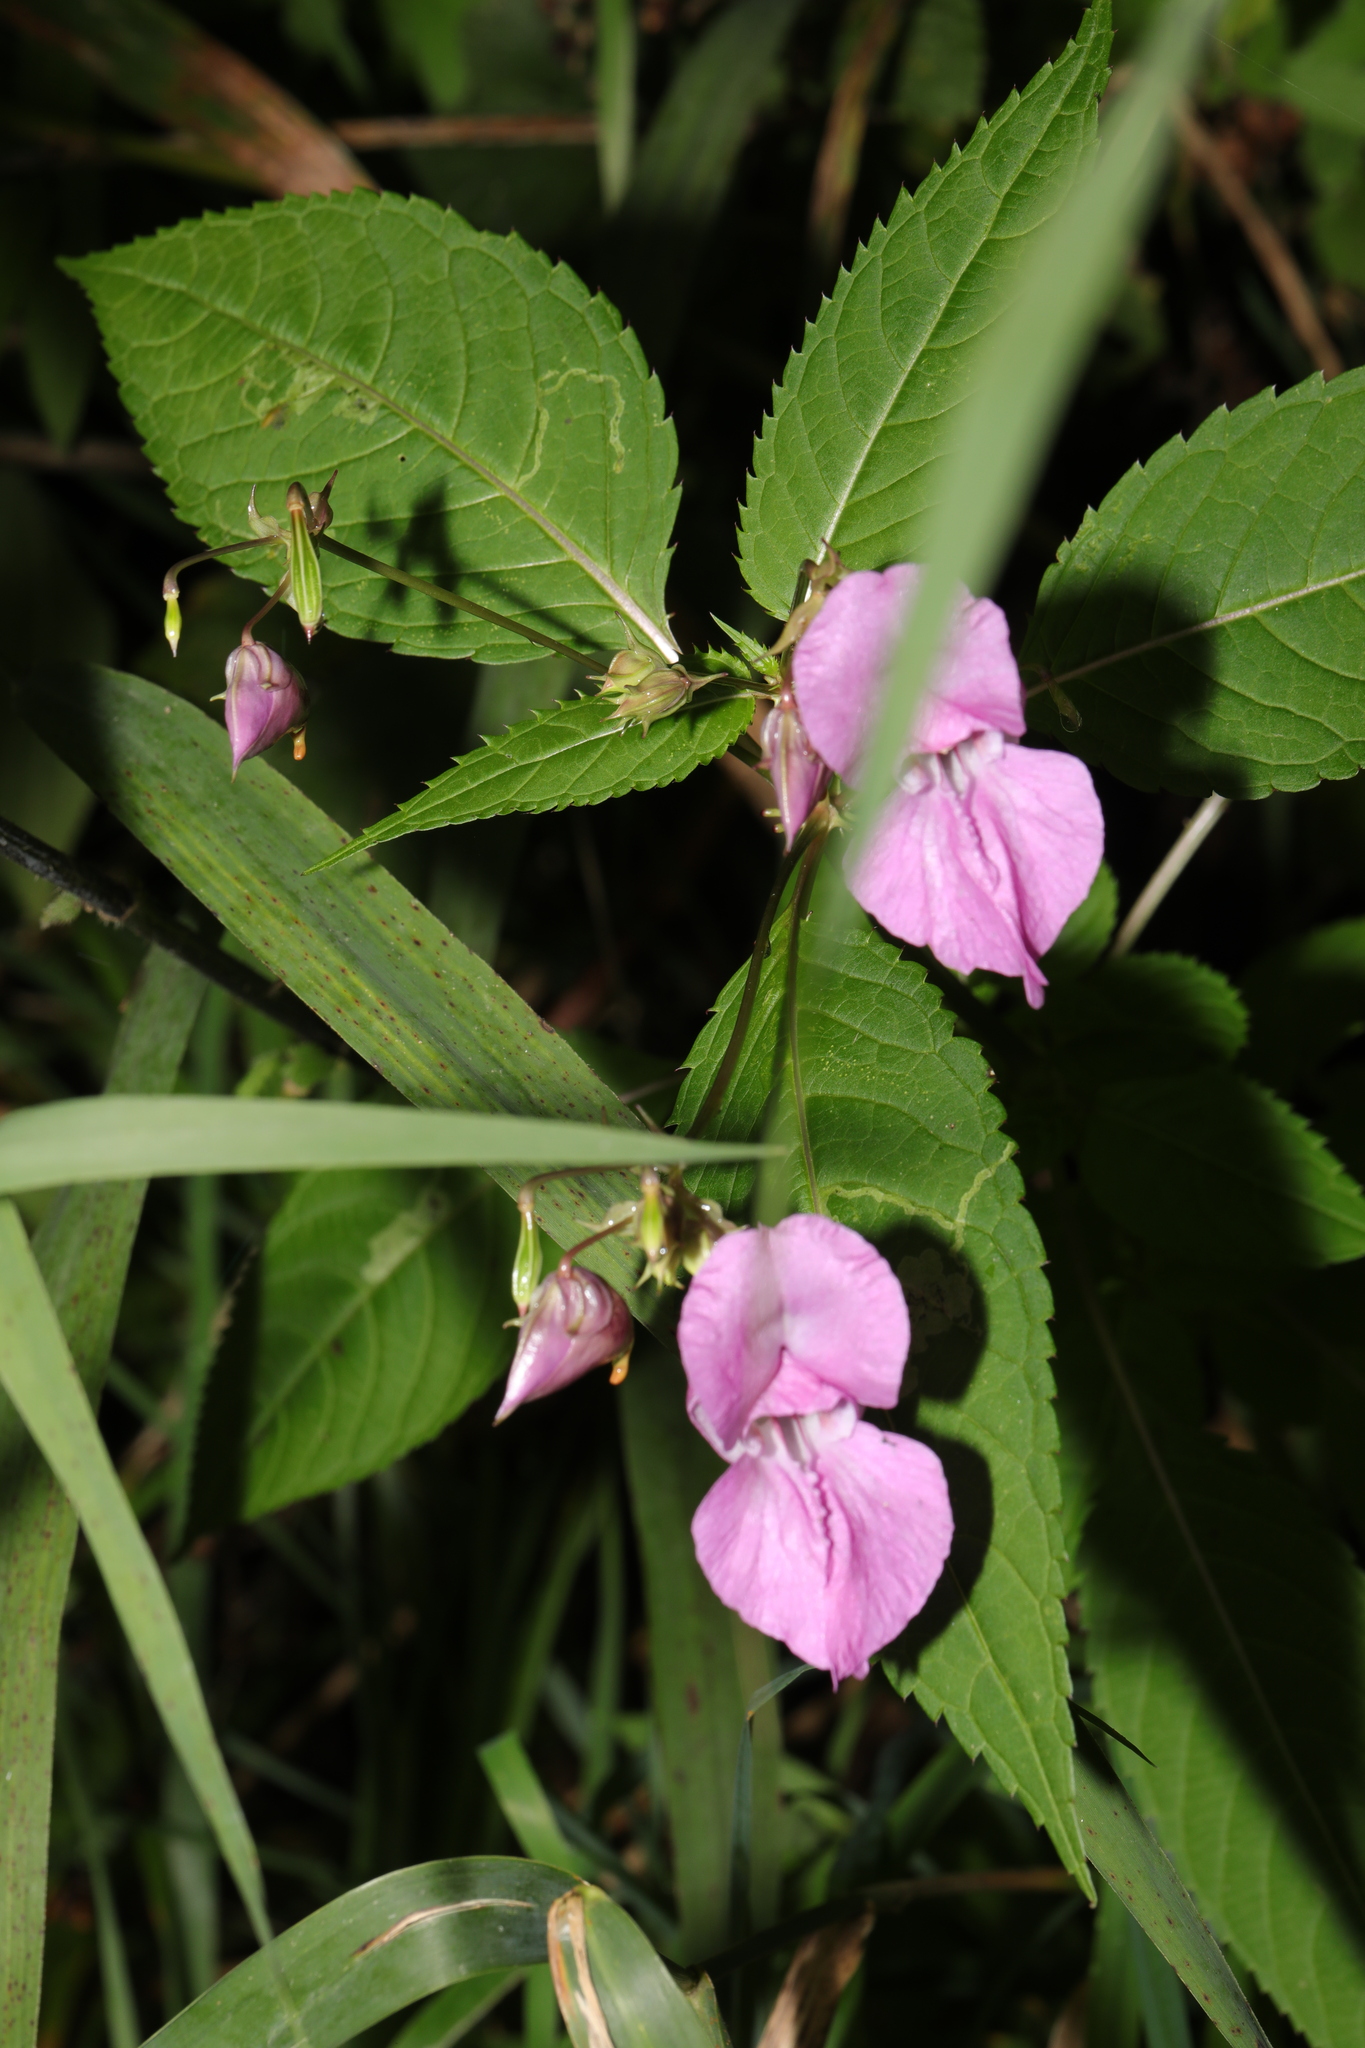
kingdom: Plantae
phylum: Tracheophyta
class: Magnoliopsida
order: Ericales
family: Balsaminaceae
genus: Impatiens
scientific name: Impatiens glandulifera
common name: Himalayan balsam
